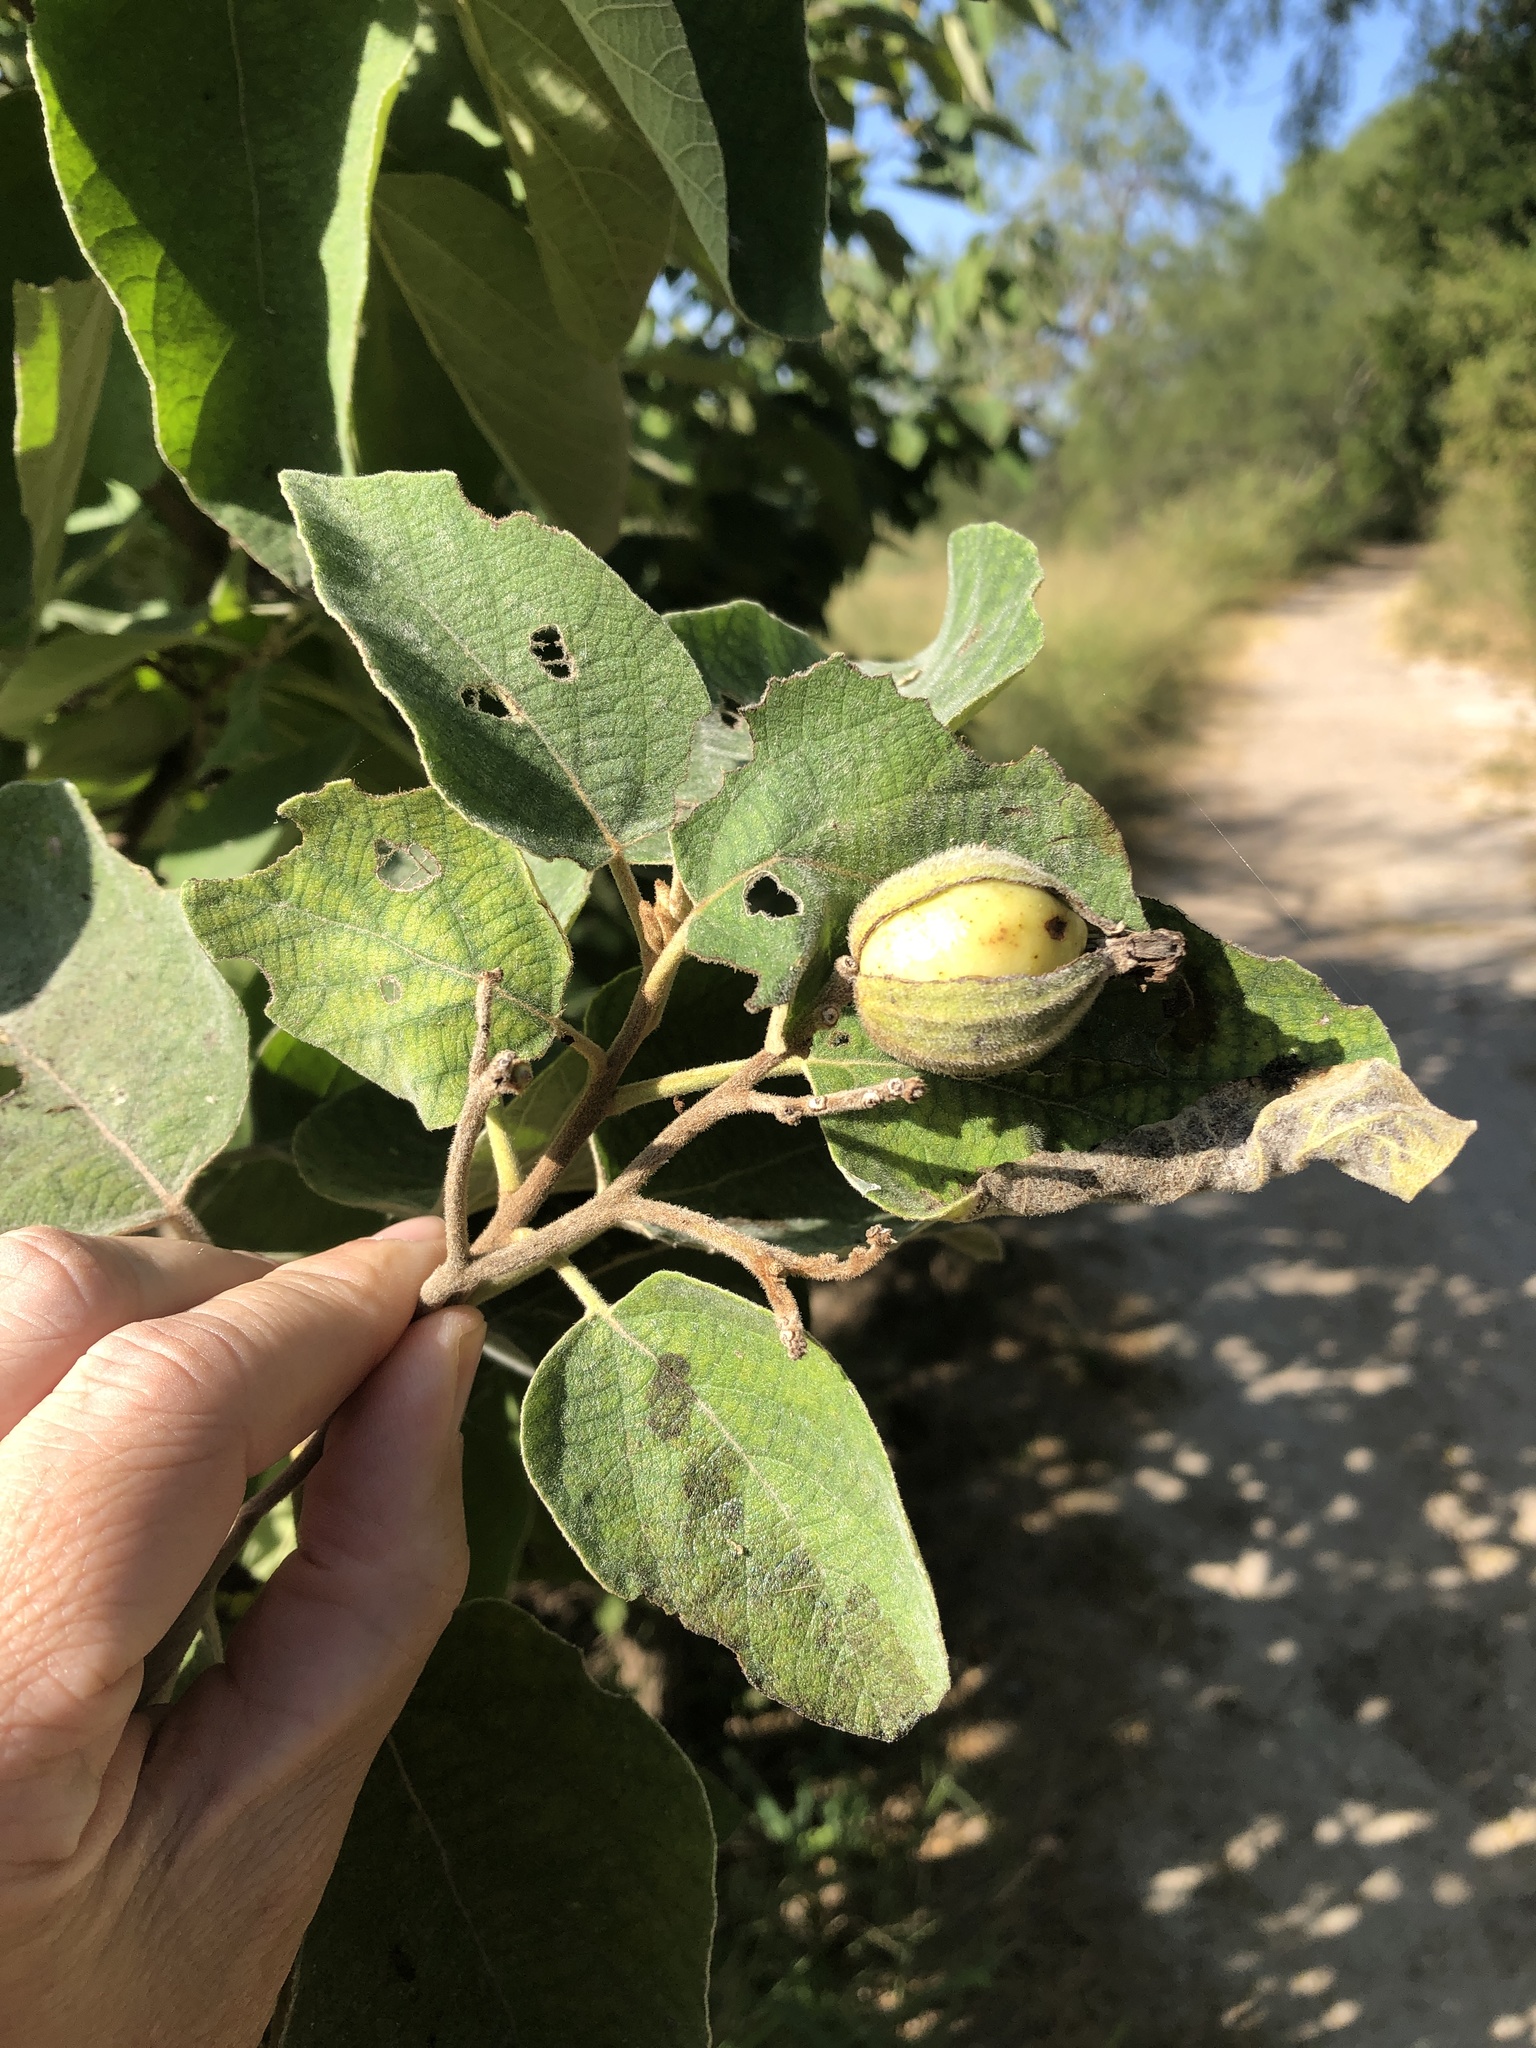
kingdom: Plantae
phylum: Tracheophyta
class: Magnoliopsida
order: Boraginales
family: Cordiaceae
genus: Cordia
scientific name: Cordia boissieri
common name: Mexican-olive
